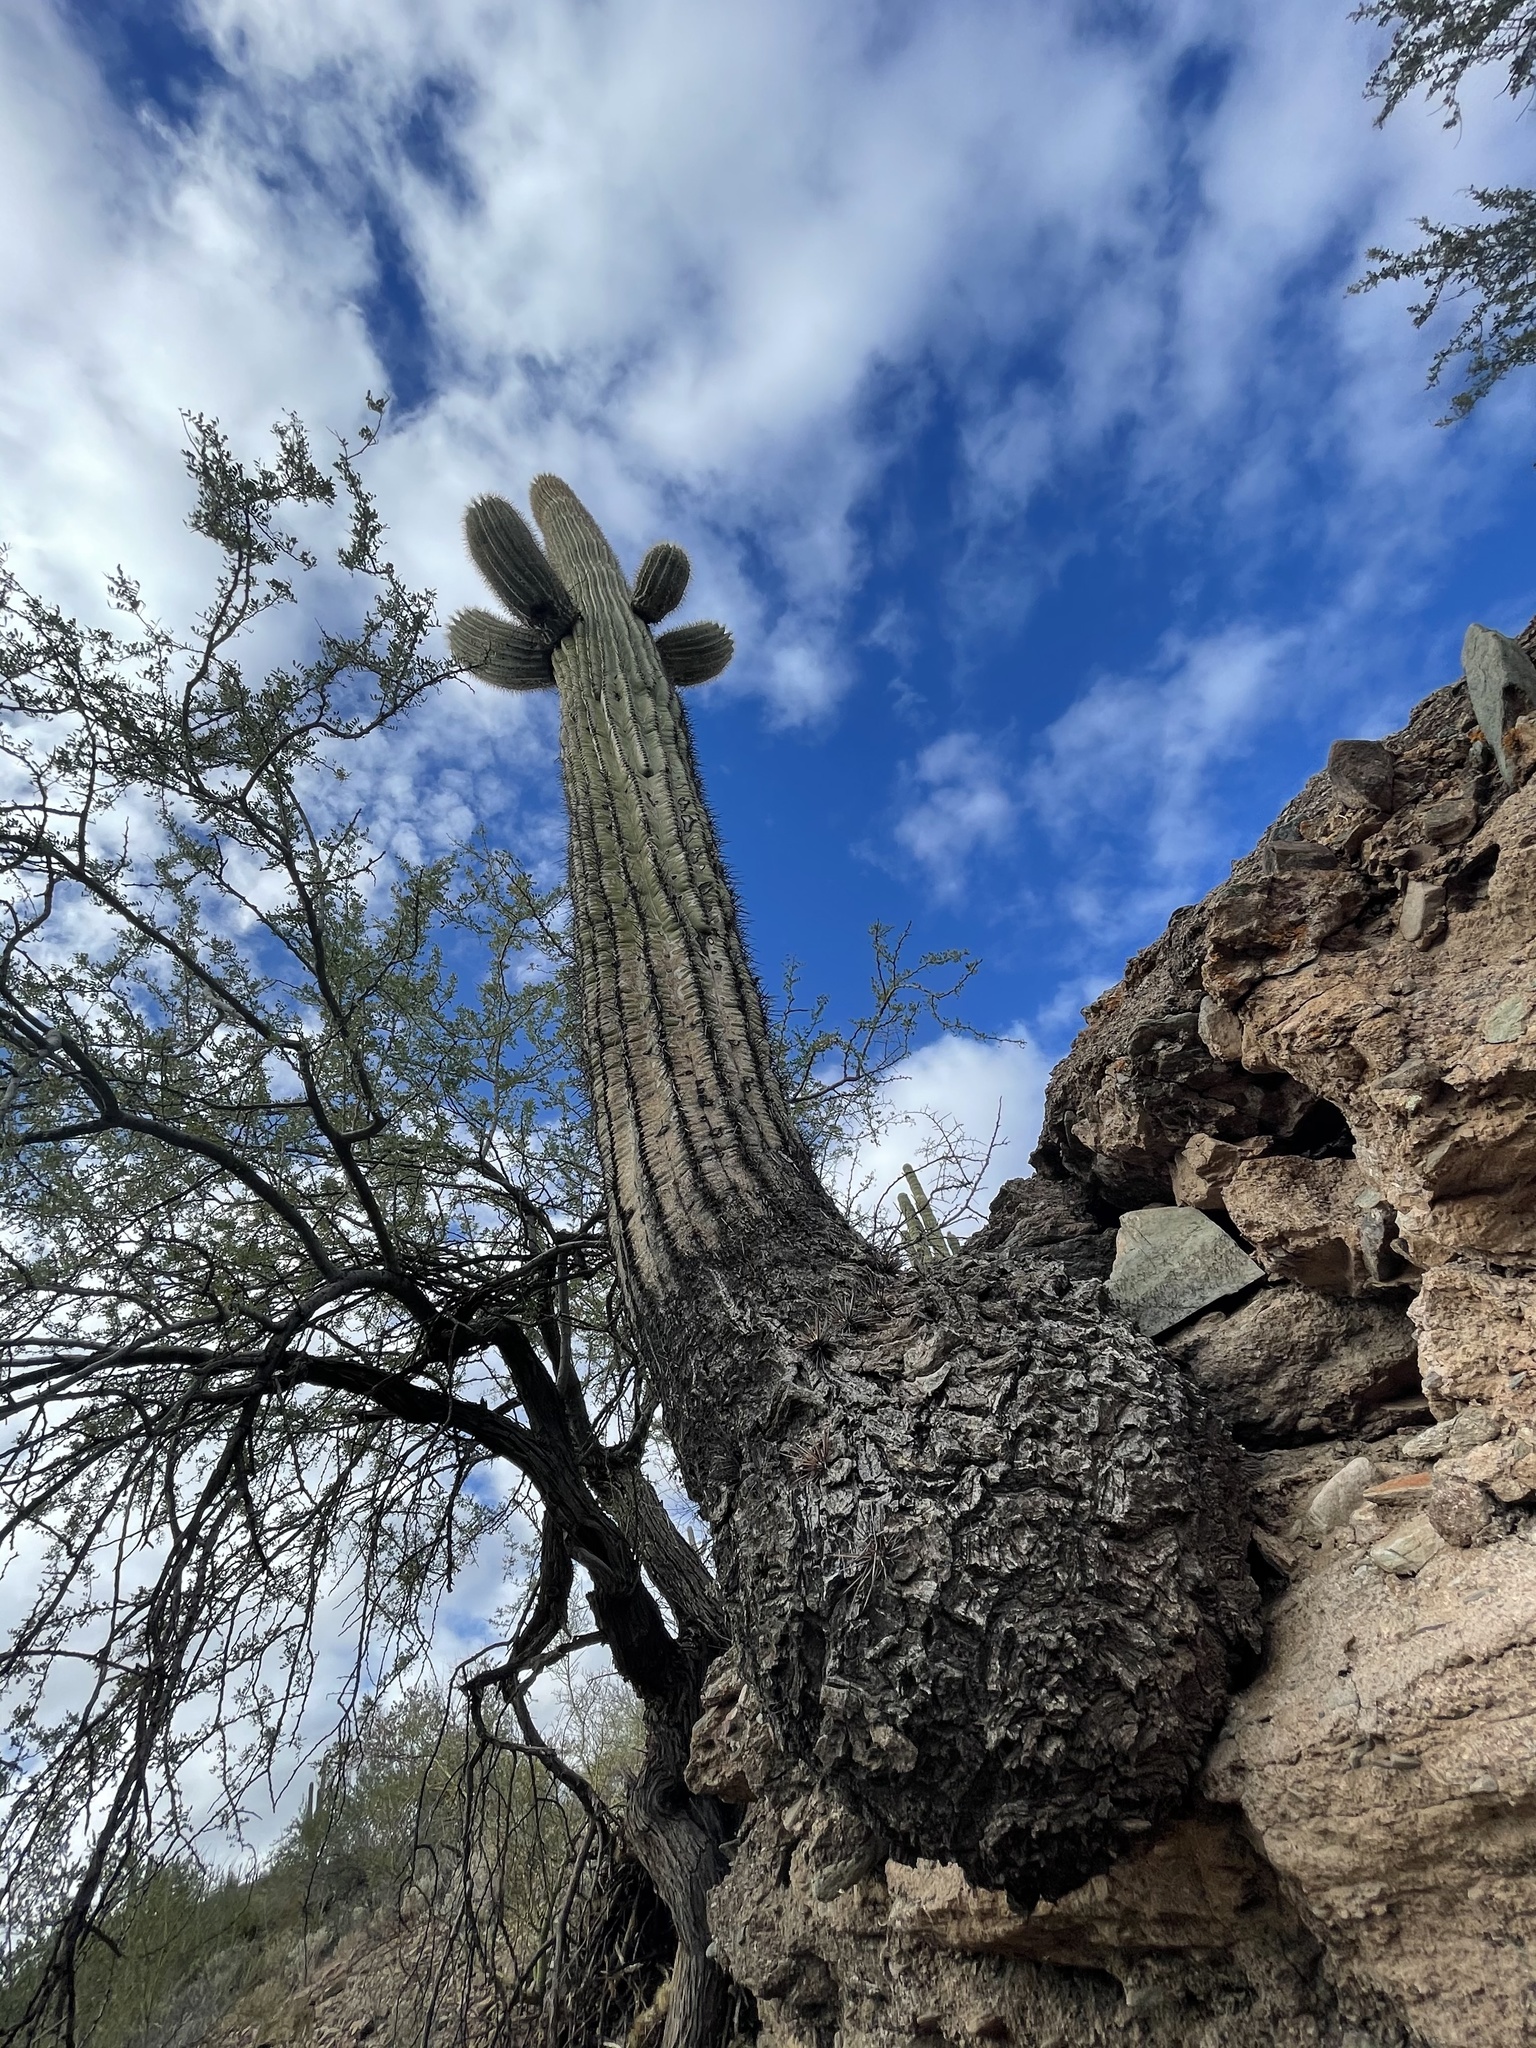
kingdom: Plantae
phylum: Tracheophyta
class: Magnoliopsida
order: Caryophyllales
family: Cactaceae
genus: Carnegiea
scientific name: Carnegiea gigantea
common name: Saguaro
